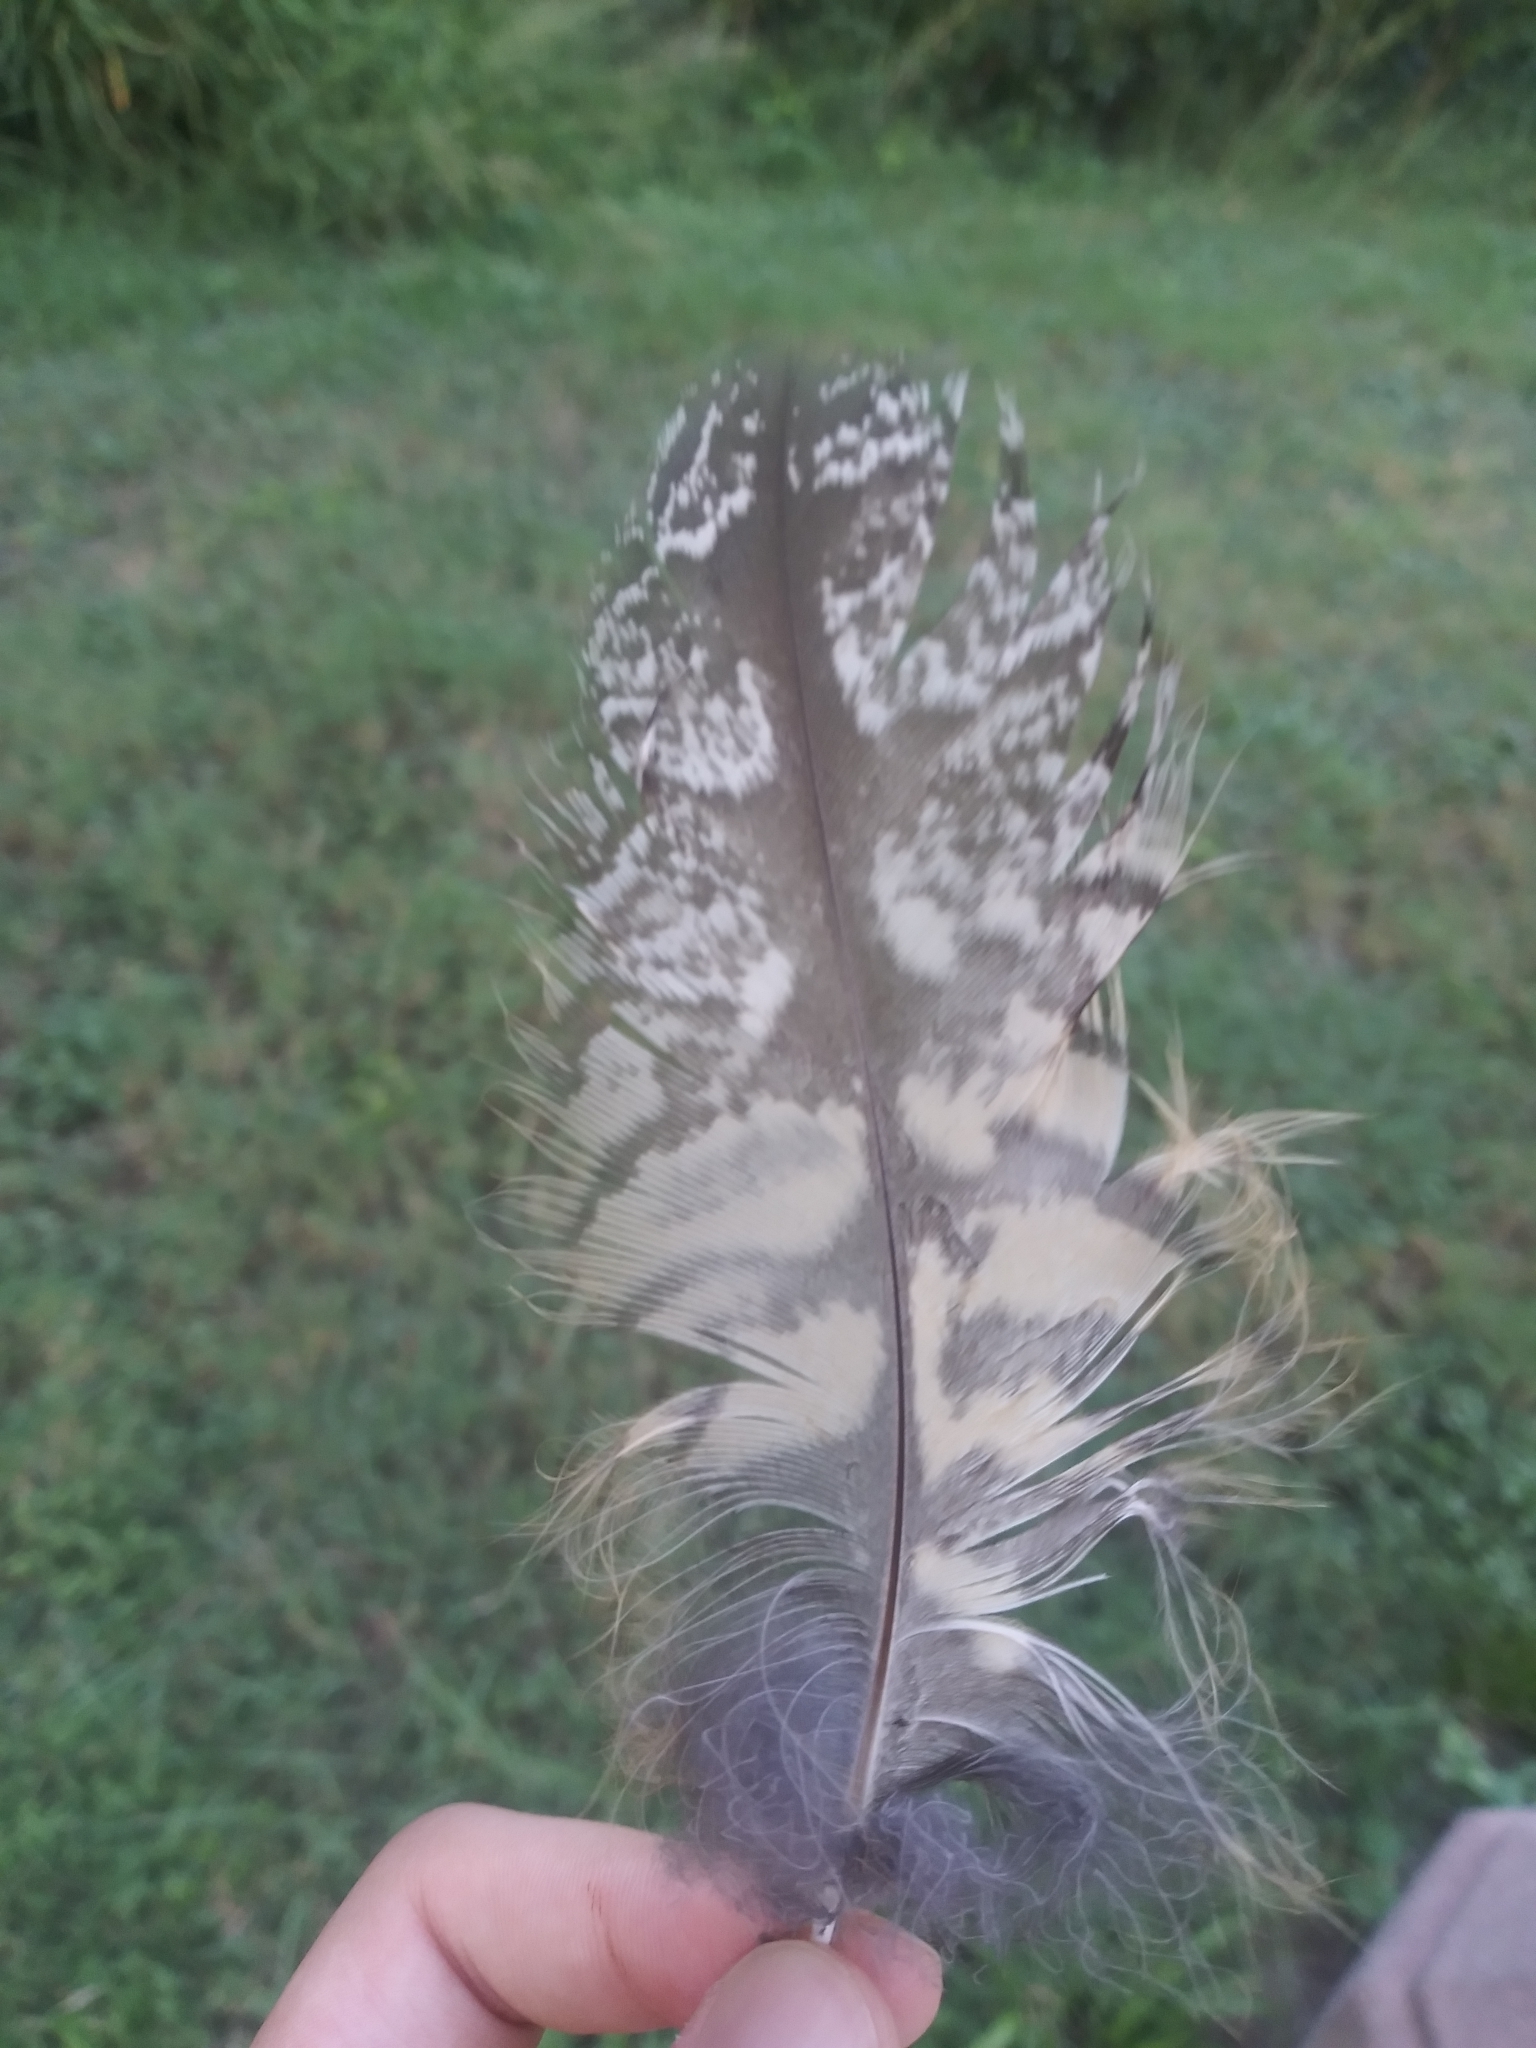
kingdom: Animalia
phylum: Chordata
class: Aves
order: Strigiformes
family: Strigidae
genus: Bubo
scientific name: Bubo virginianus
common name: Great horned owl
